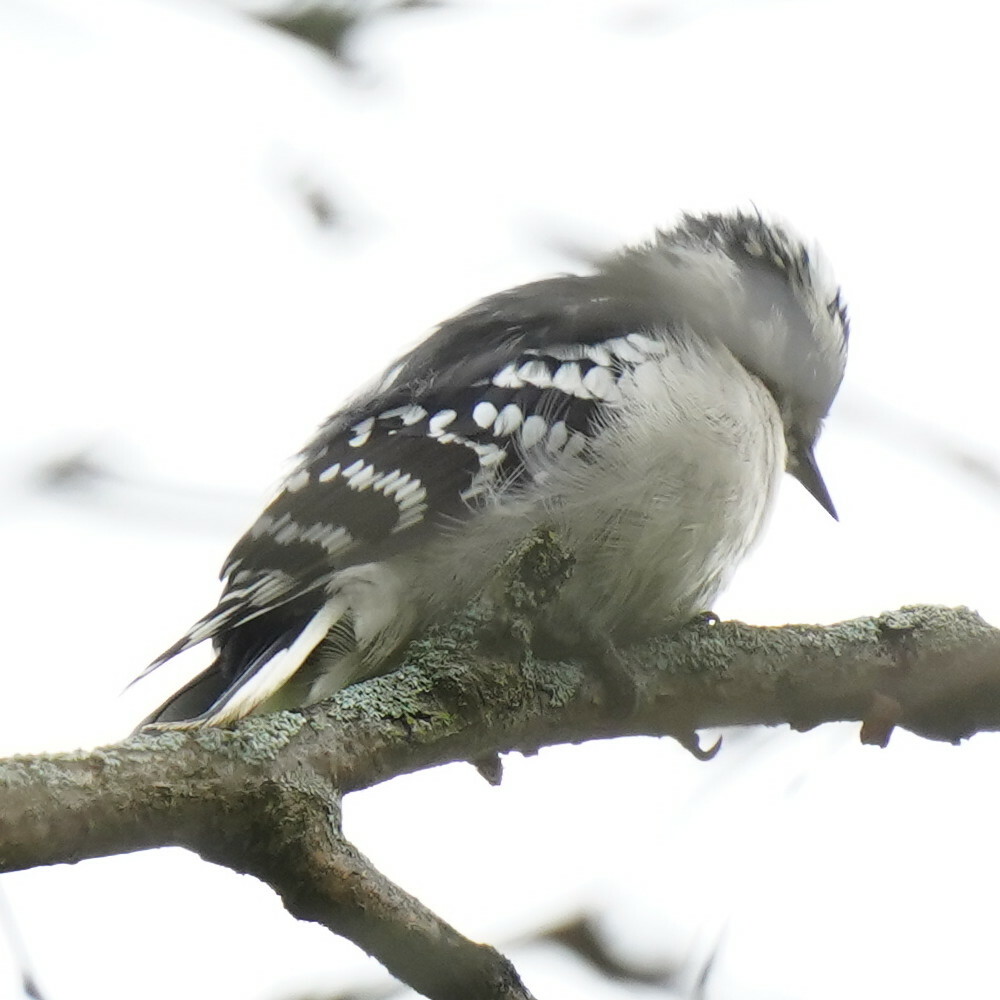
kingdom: Animalia
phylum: Chordata
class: Aves
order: Piciformes
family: Picidae
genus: Dryobates
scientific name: Dryobates pubescens
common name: Downy woodpecker
